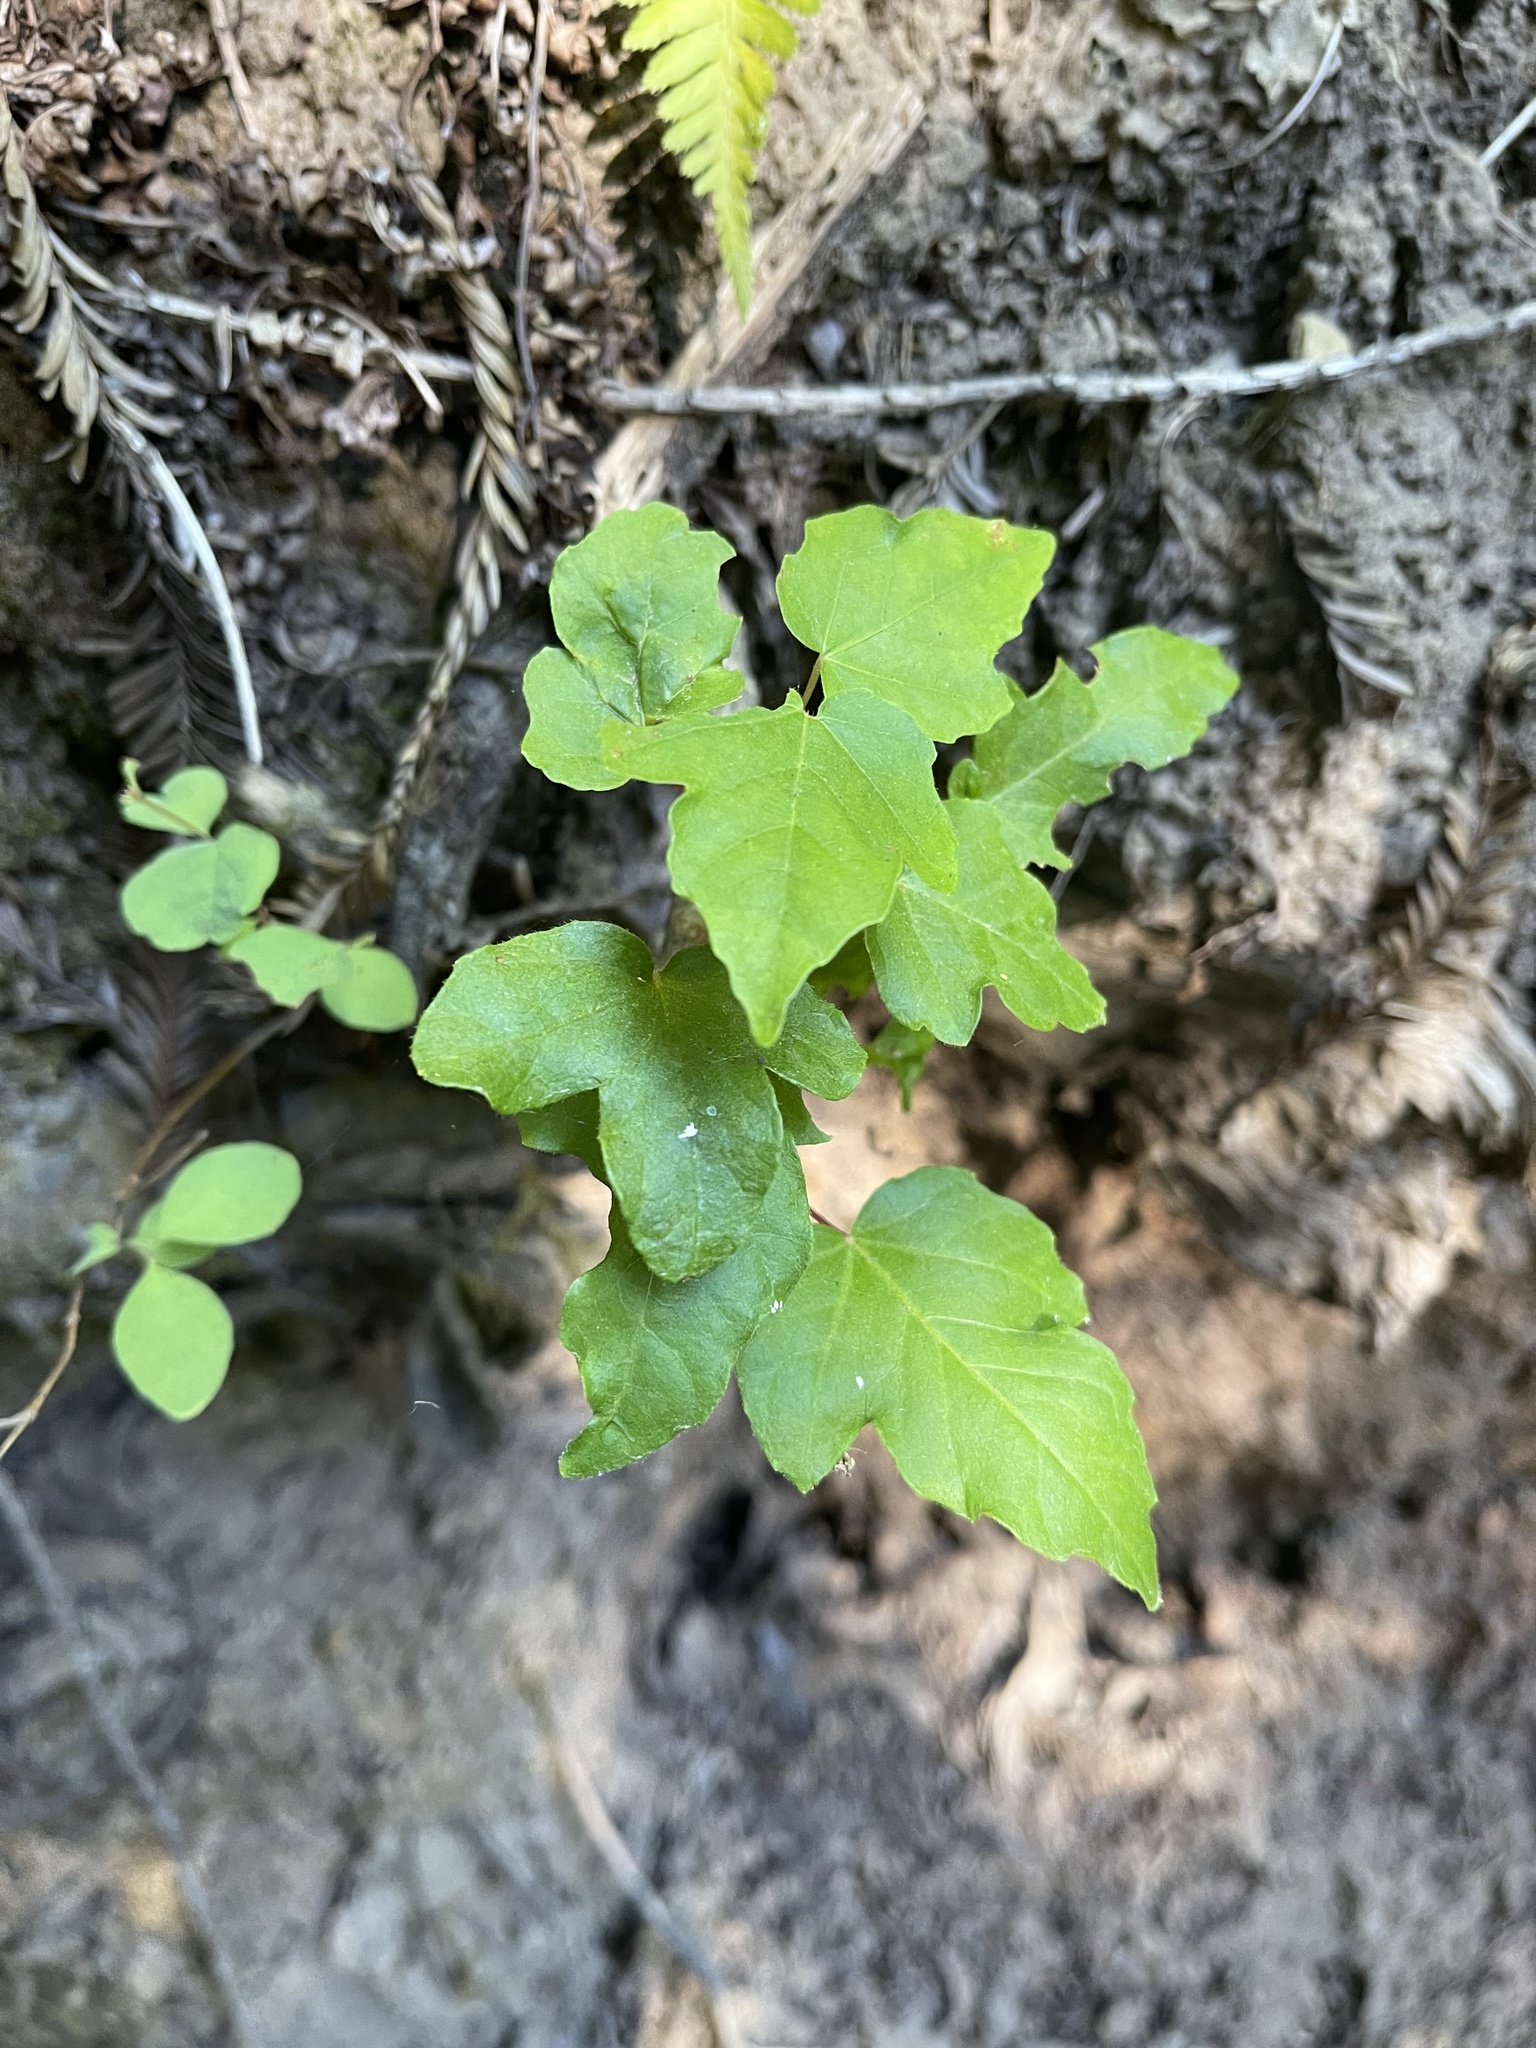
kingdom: Plantae
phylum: Tracheophyta
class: Magnoliopsida
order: Sapindales
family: Sapindaceae
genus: Acer
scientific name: Acer macrophyllum
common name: Oregon maple
